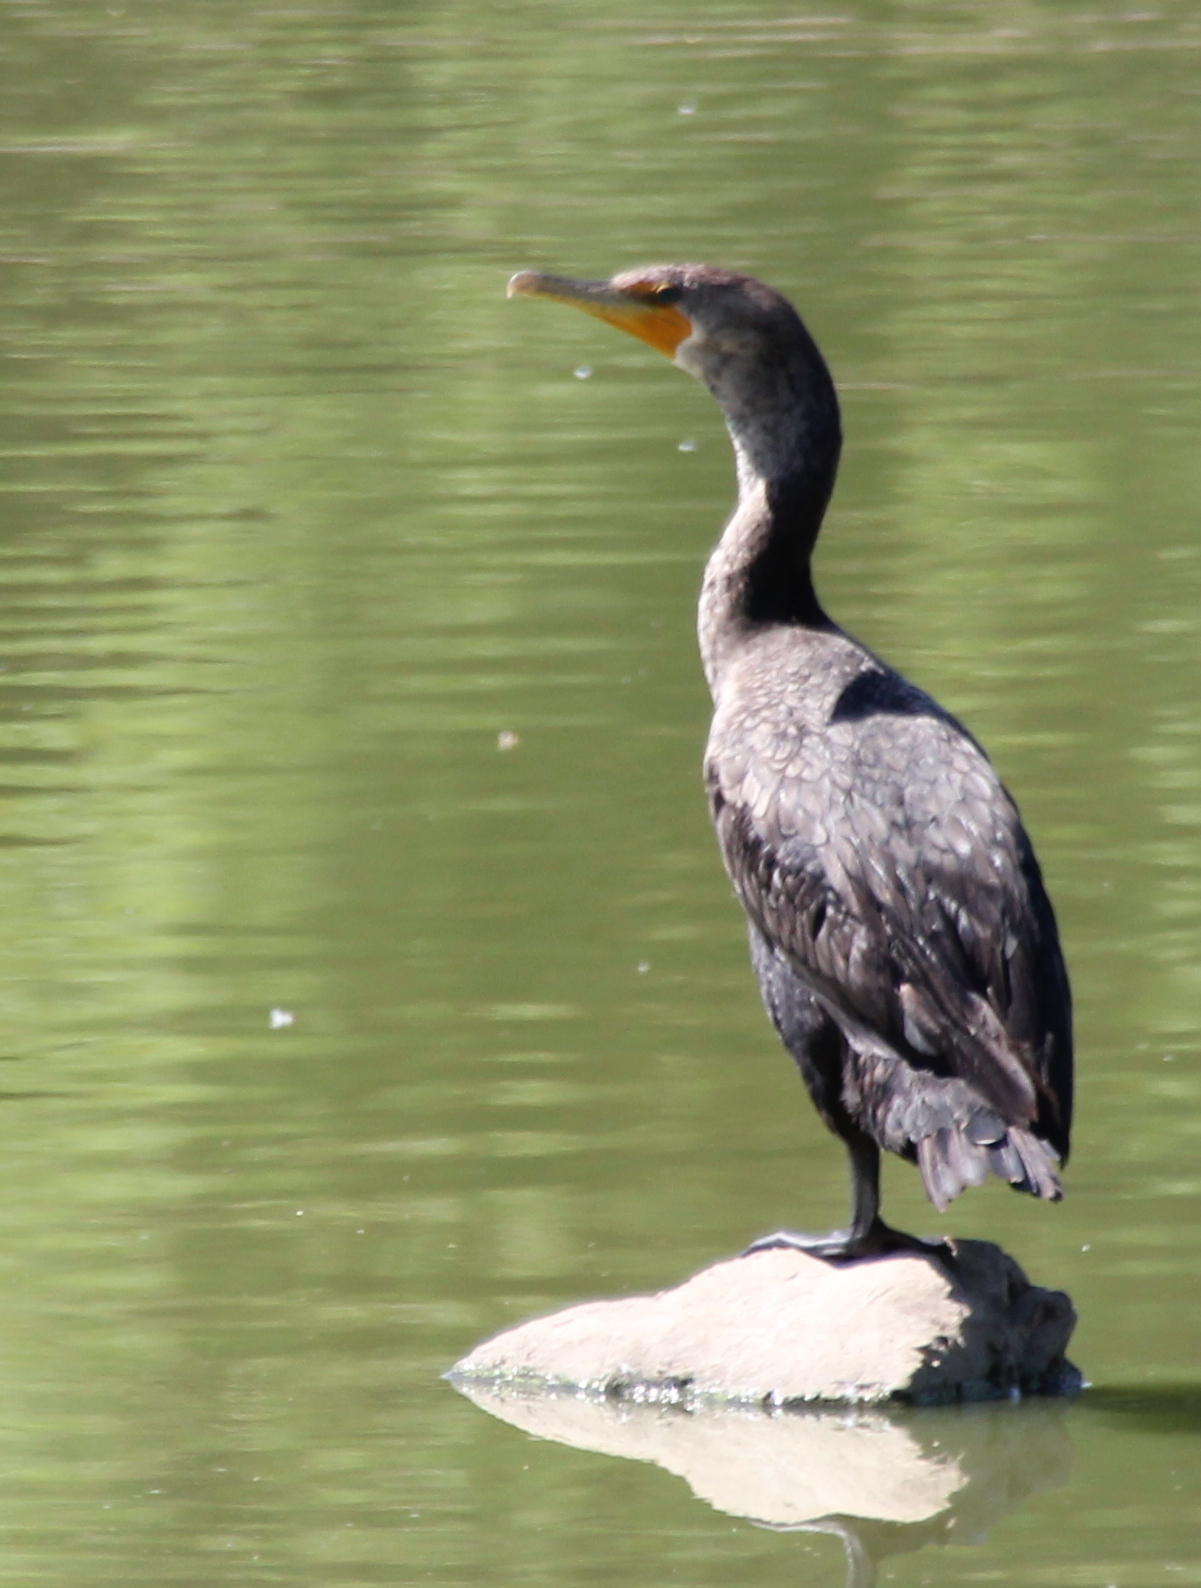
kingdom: Animalia
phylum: Chordata
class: Aves
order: Suliformes
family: Phalacrocoracidae
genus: Phalacrocorax
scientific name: Phalacrocorax auritus
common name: Double-crested cormorant
